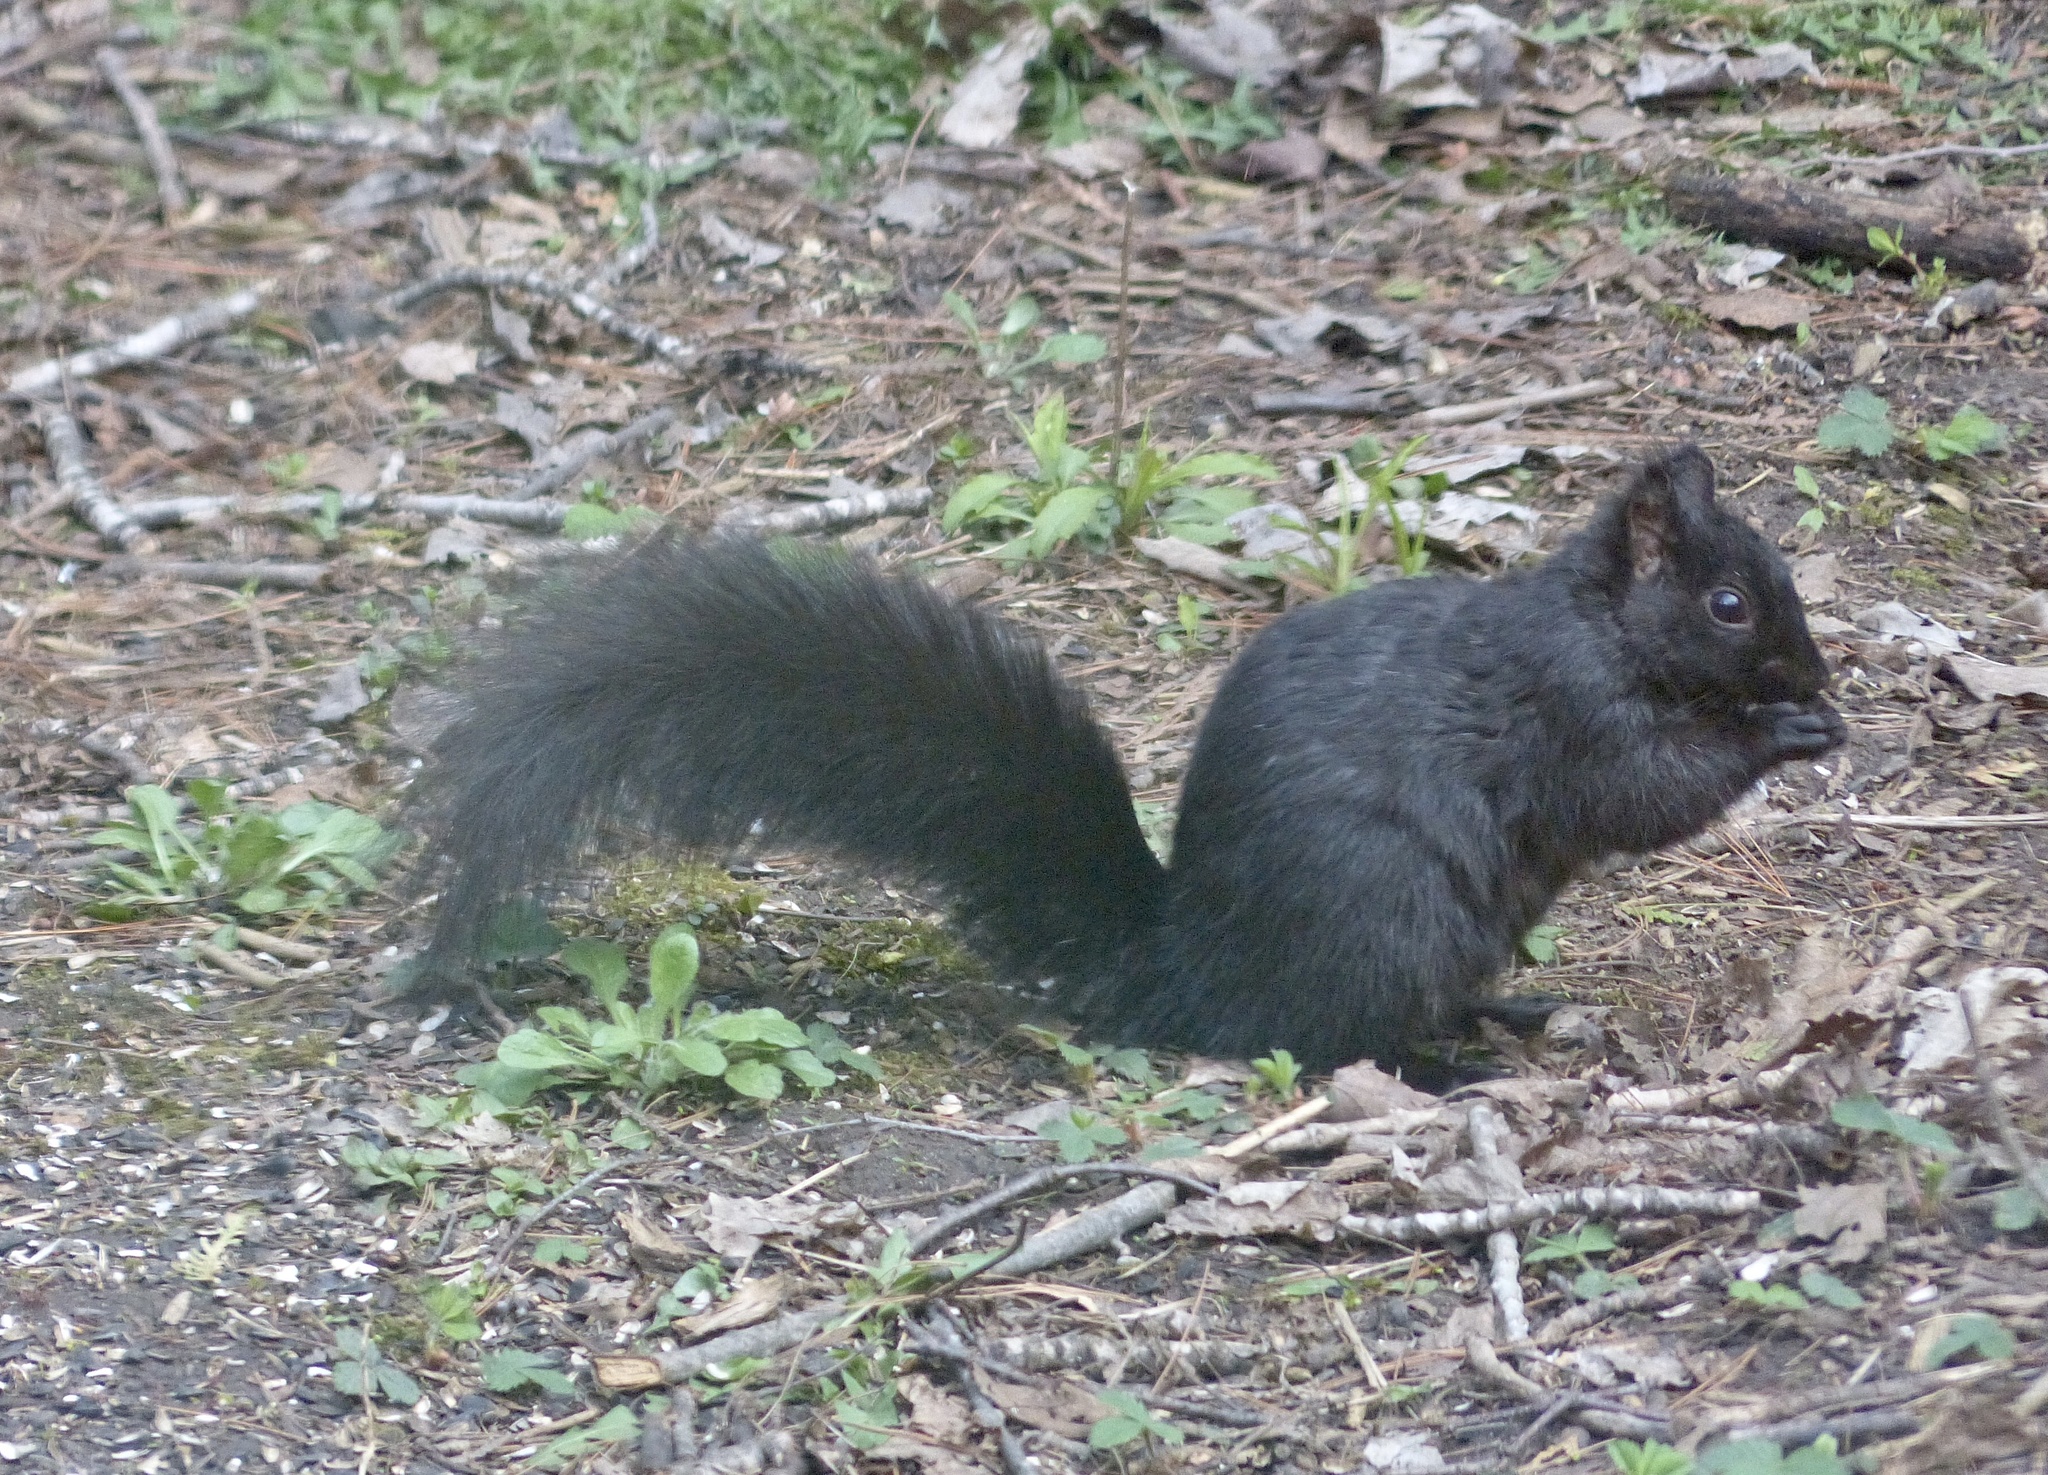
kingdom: Animalia
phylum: Chordata
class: Mammalia
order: Rodentia
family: Sciuridae
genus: Sciurus
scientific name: Sciurus carolinensis
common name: Eastern gray squirrel
